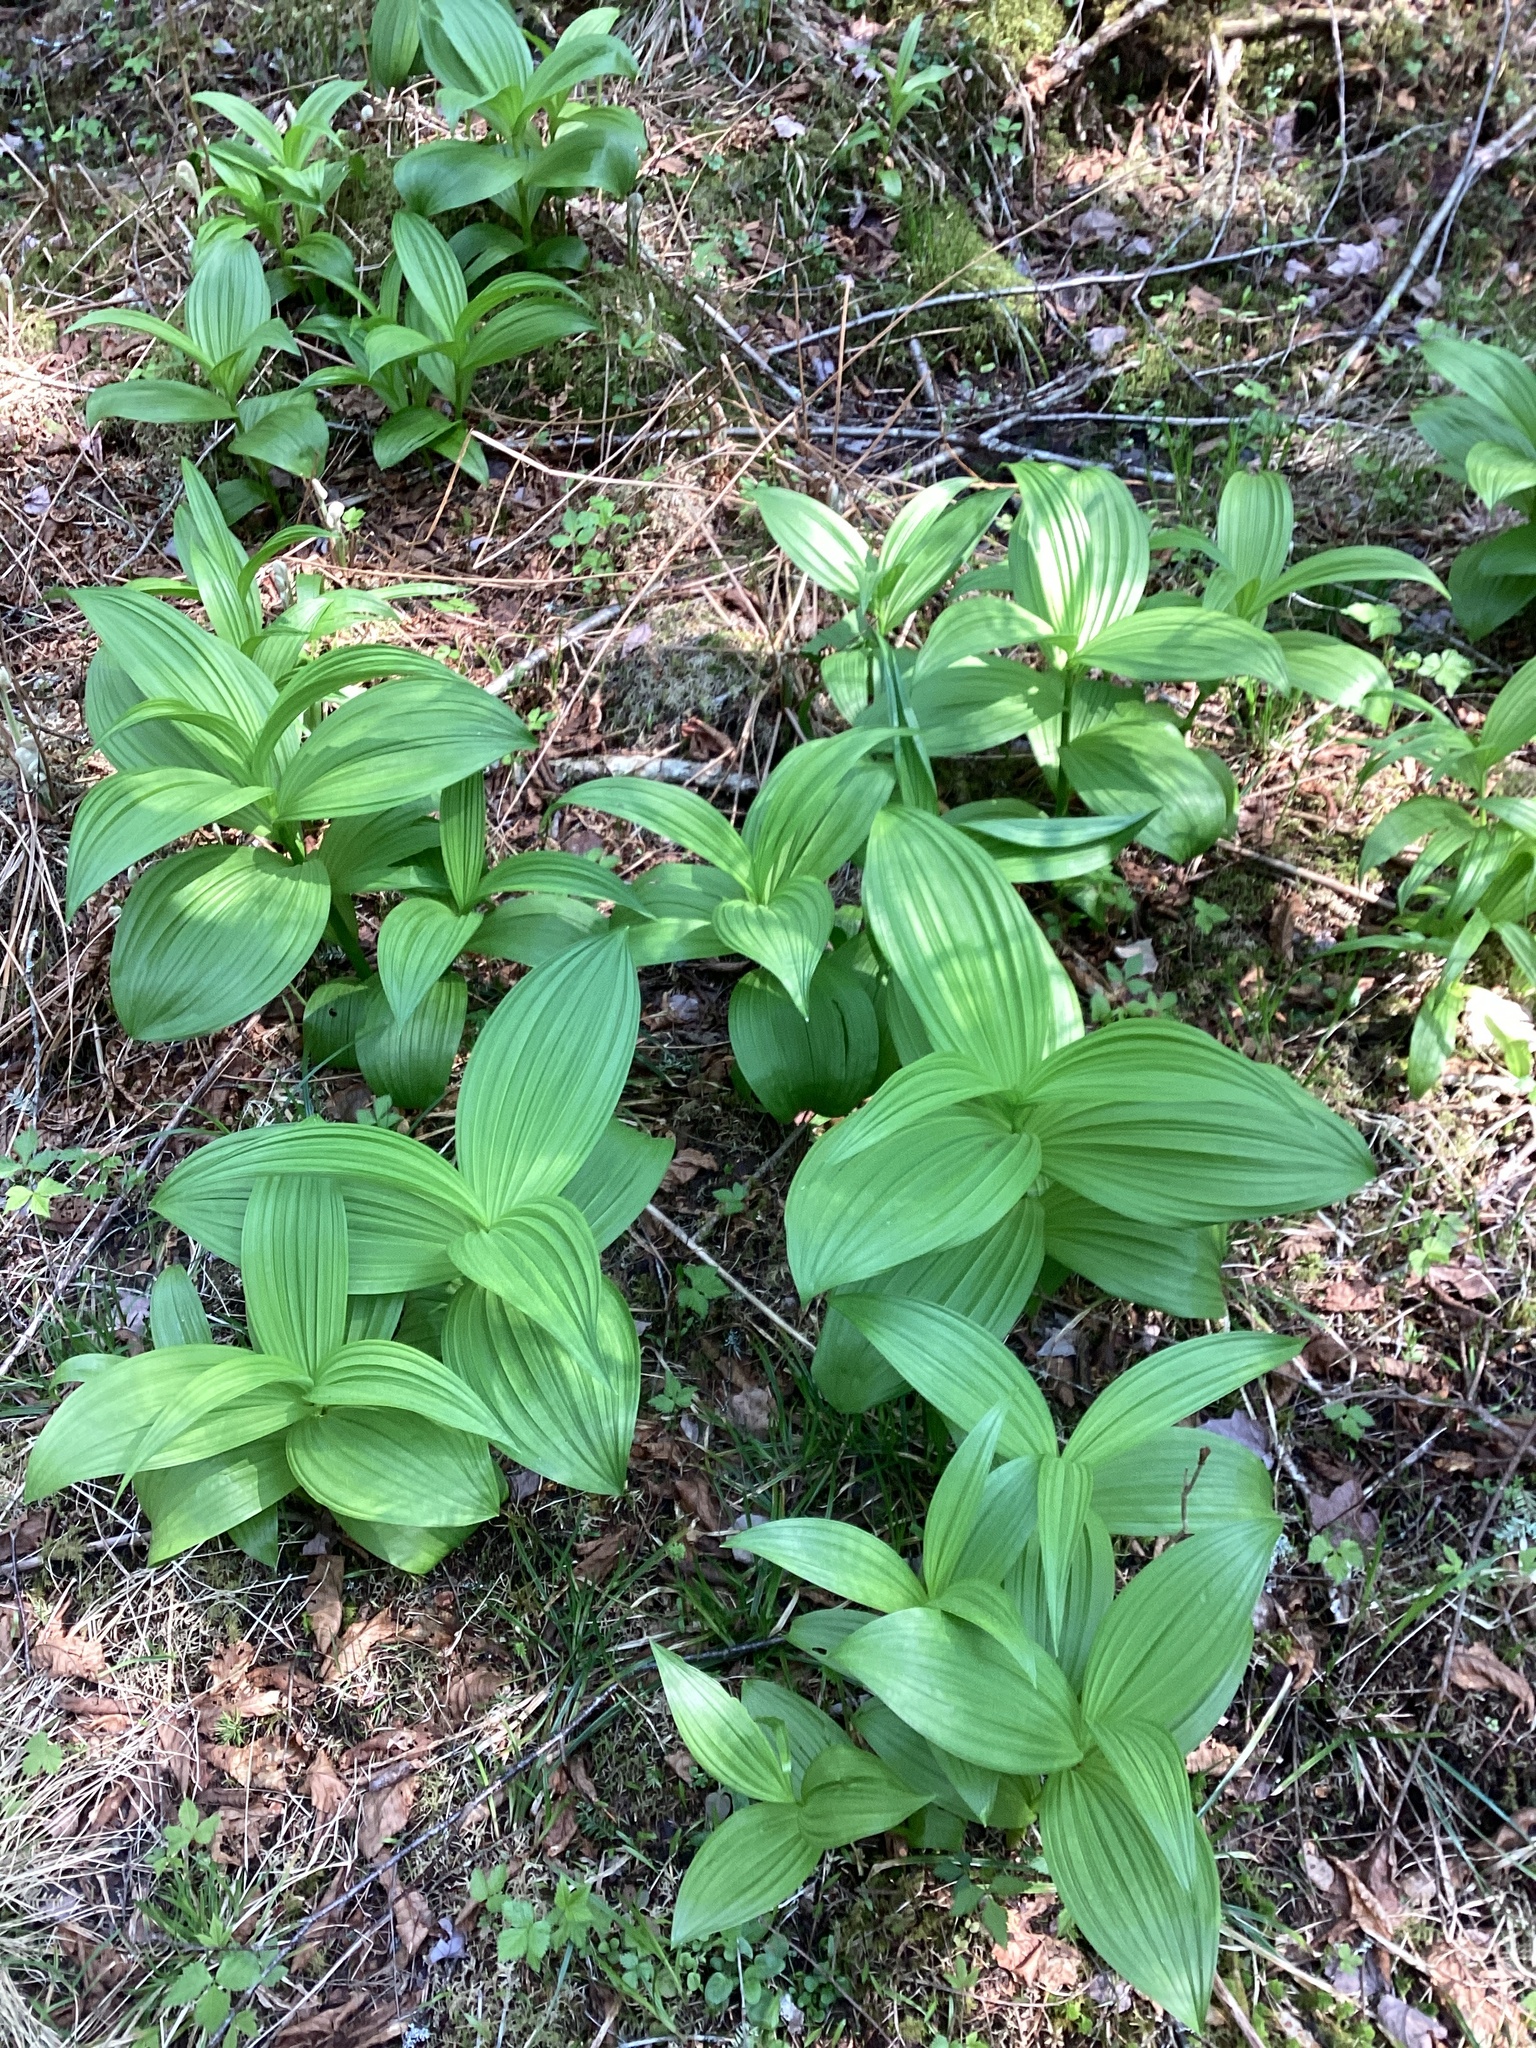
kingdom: Plantae
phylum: Tracheophyta
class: Liliopsida
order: Liliales
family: Melanthiaceae
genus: Veratrum
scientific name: Veratrum viride
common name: American false hellebore
